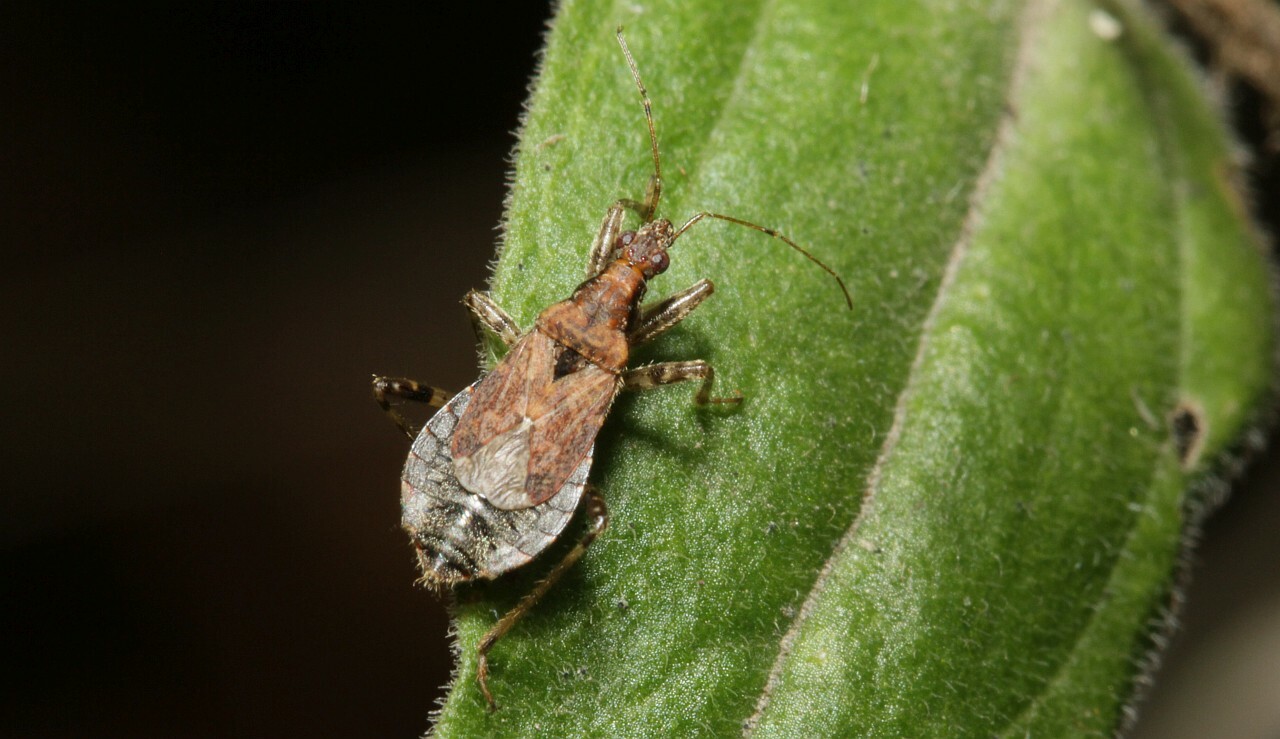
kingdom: Animalia
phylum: Arthropoda
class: Insecta
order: Hemiptera
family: Nabidae
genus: Himacerus
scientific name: Himacerus mirmicoides
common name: Ant damsel bug
